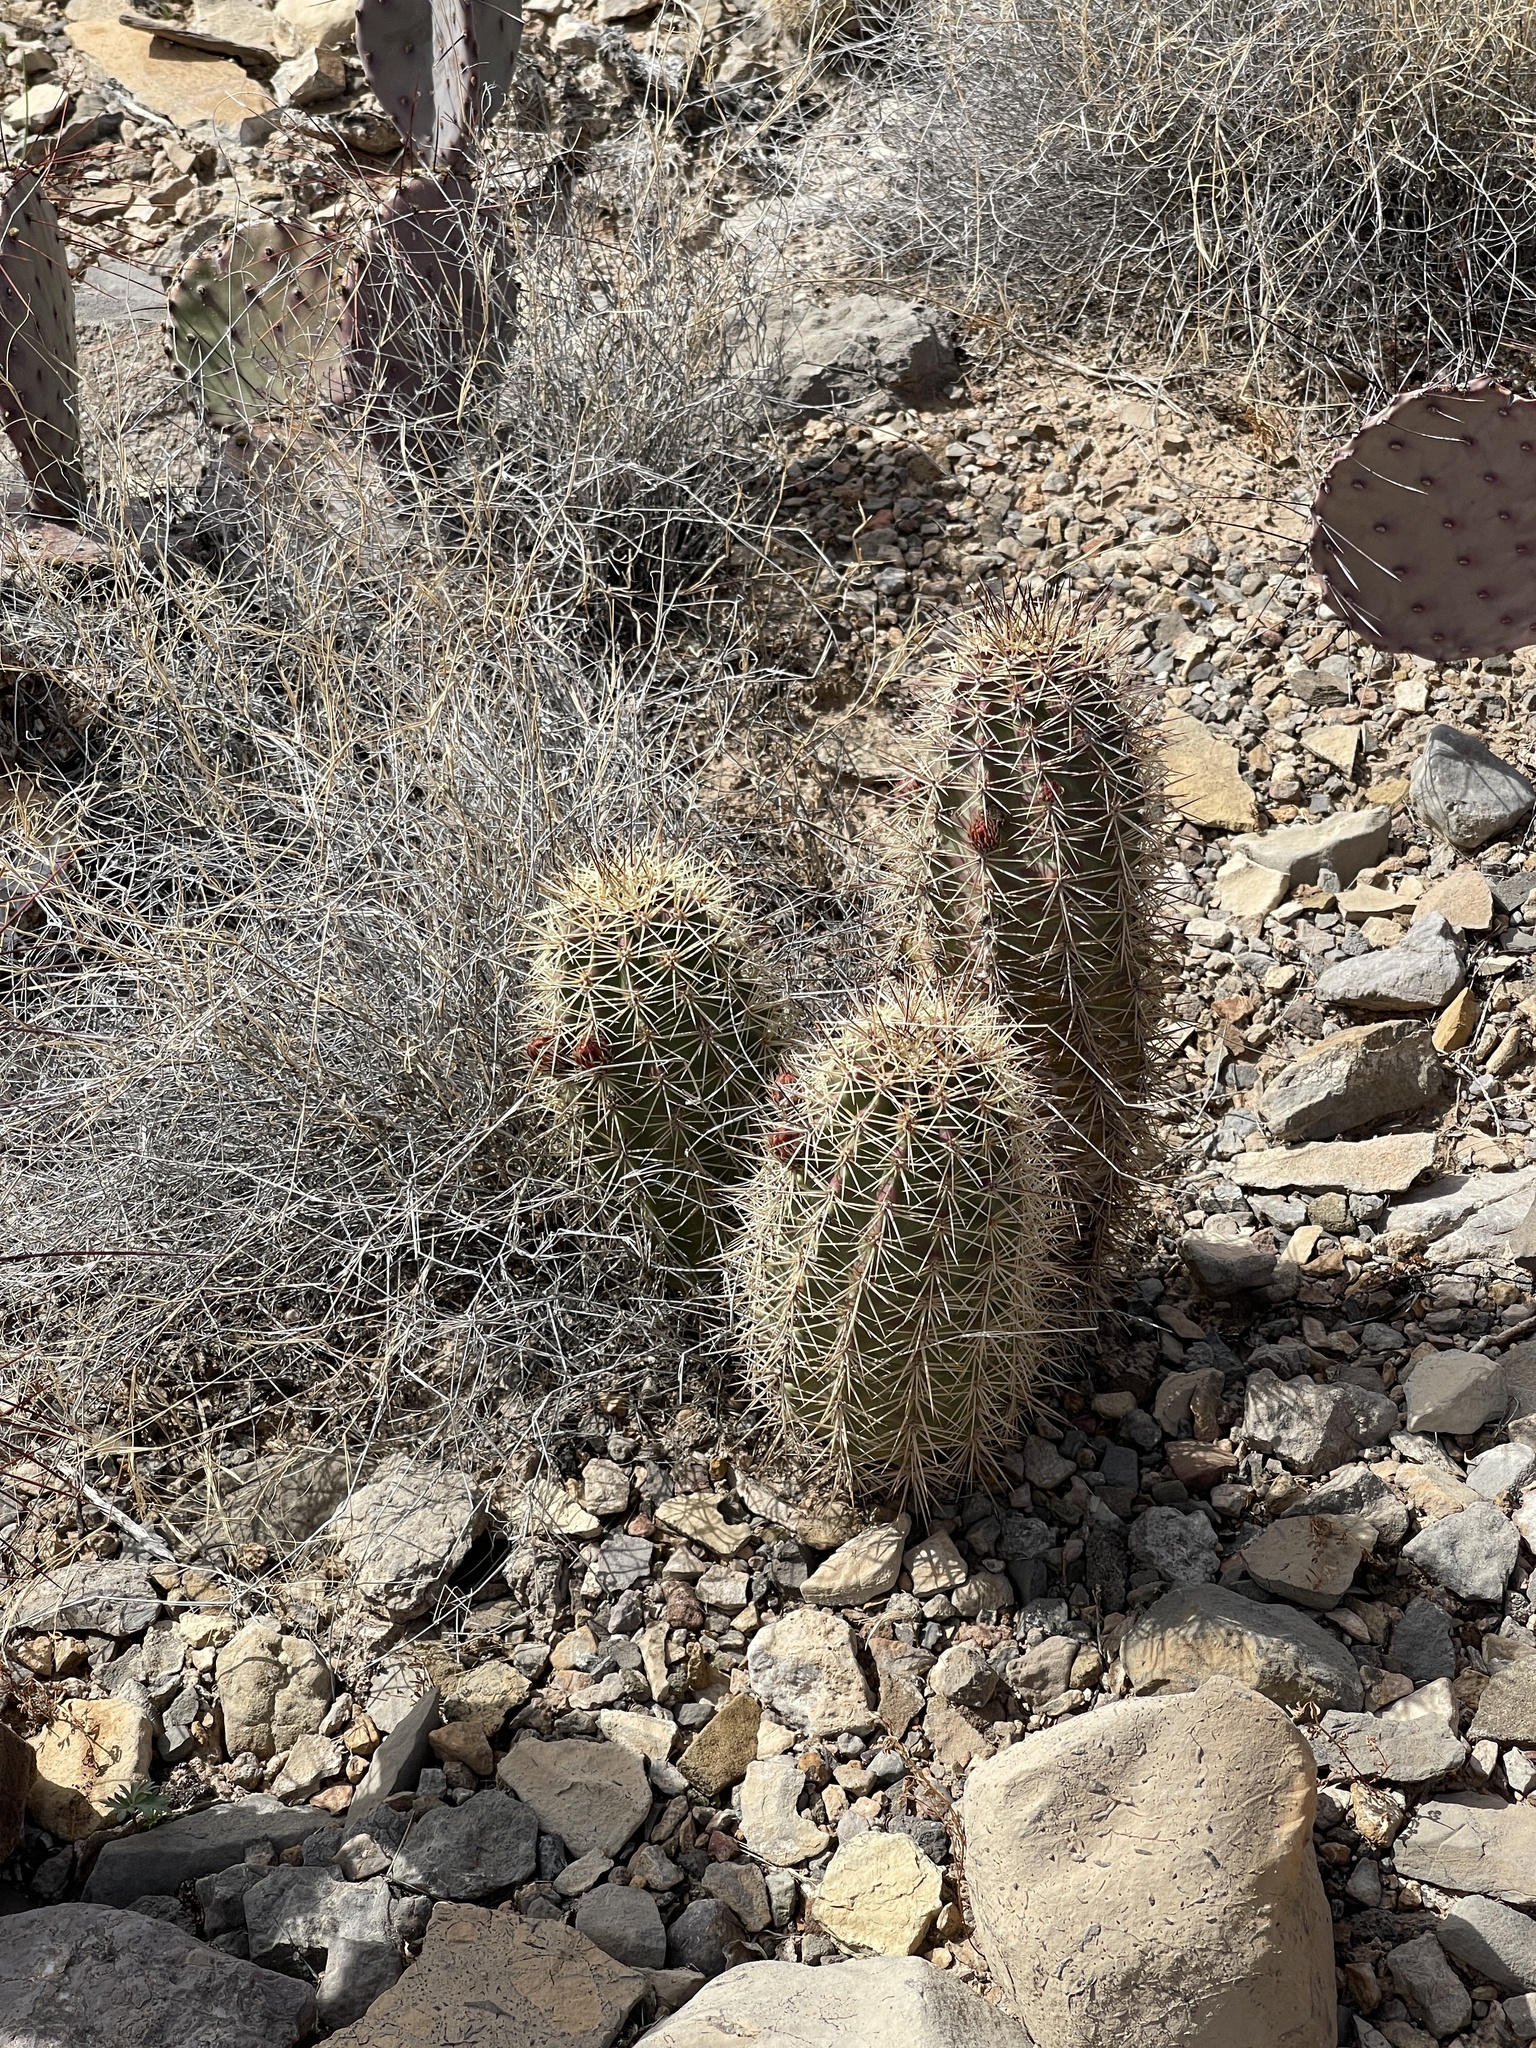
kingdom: Plantae
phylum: Tracheophyta
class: Magnoliopsida
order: Caryophyllales
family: Cactaceae
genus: Echinocereus
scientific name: Echinocereus coccineus
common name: Scarlet hedgehog cactus
